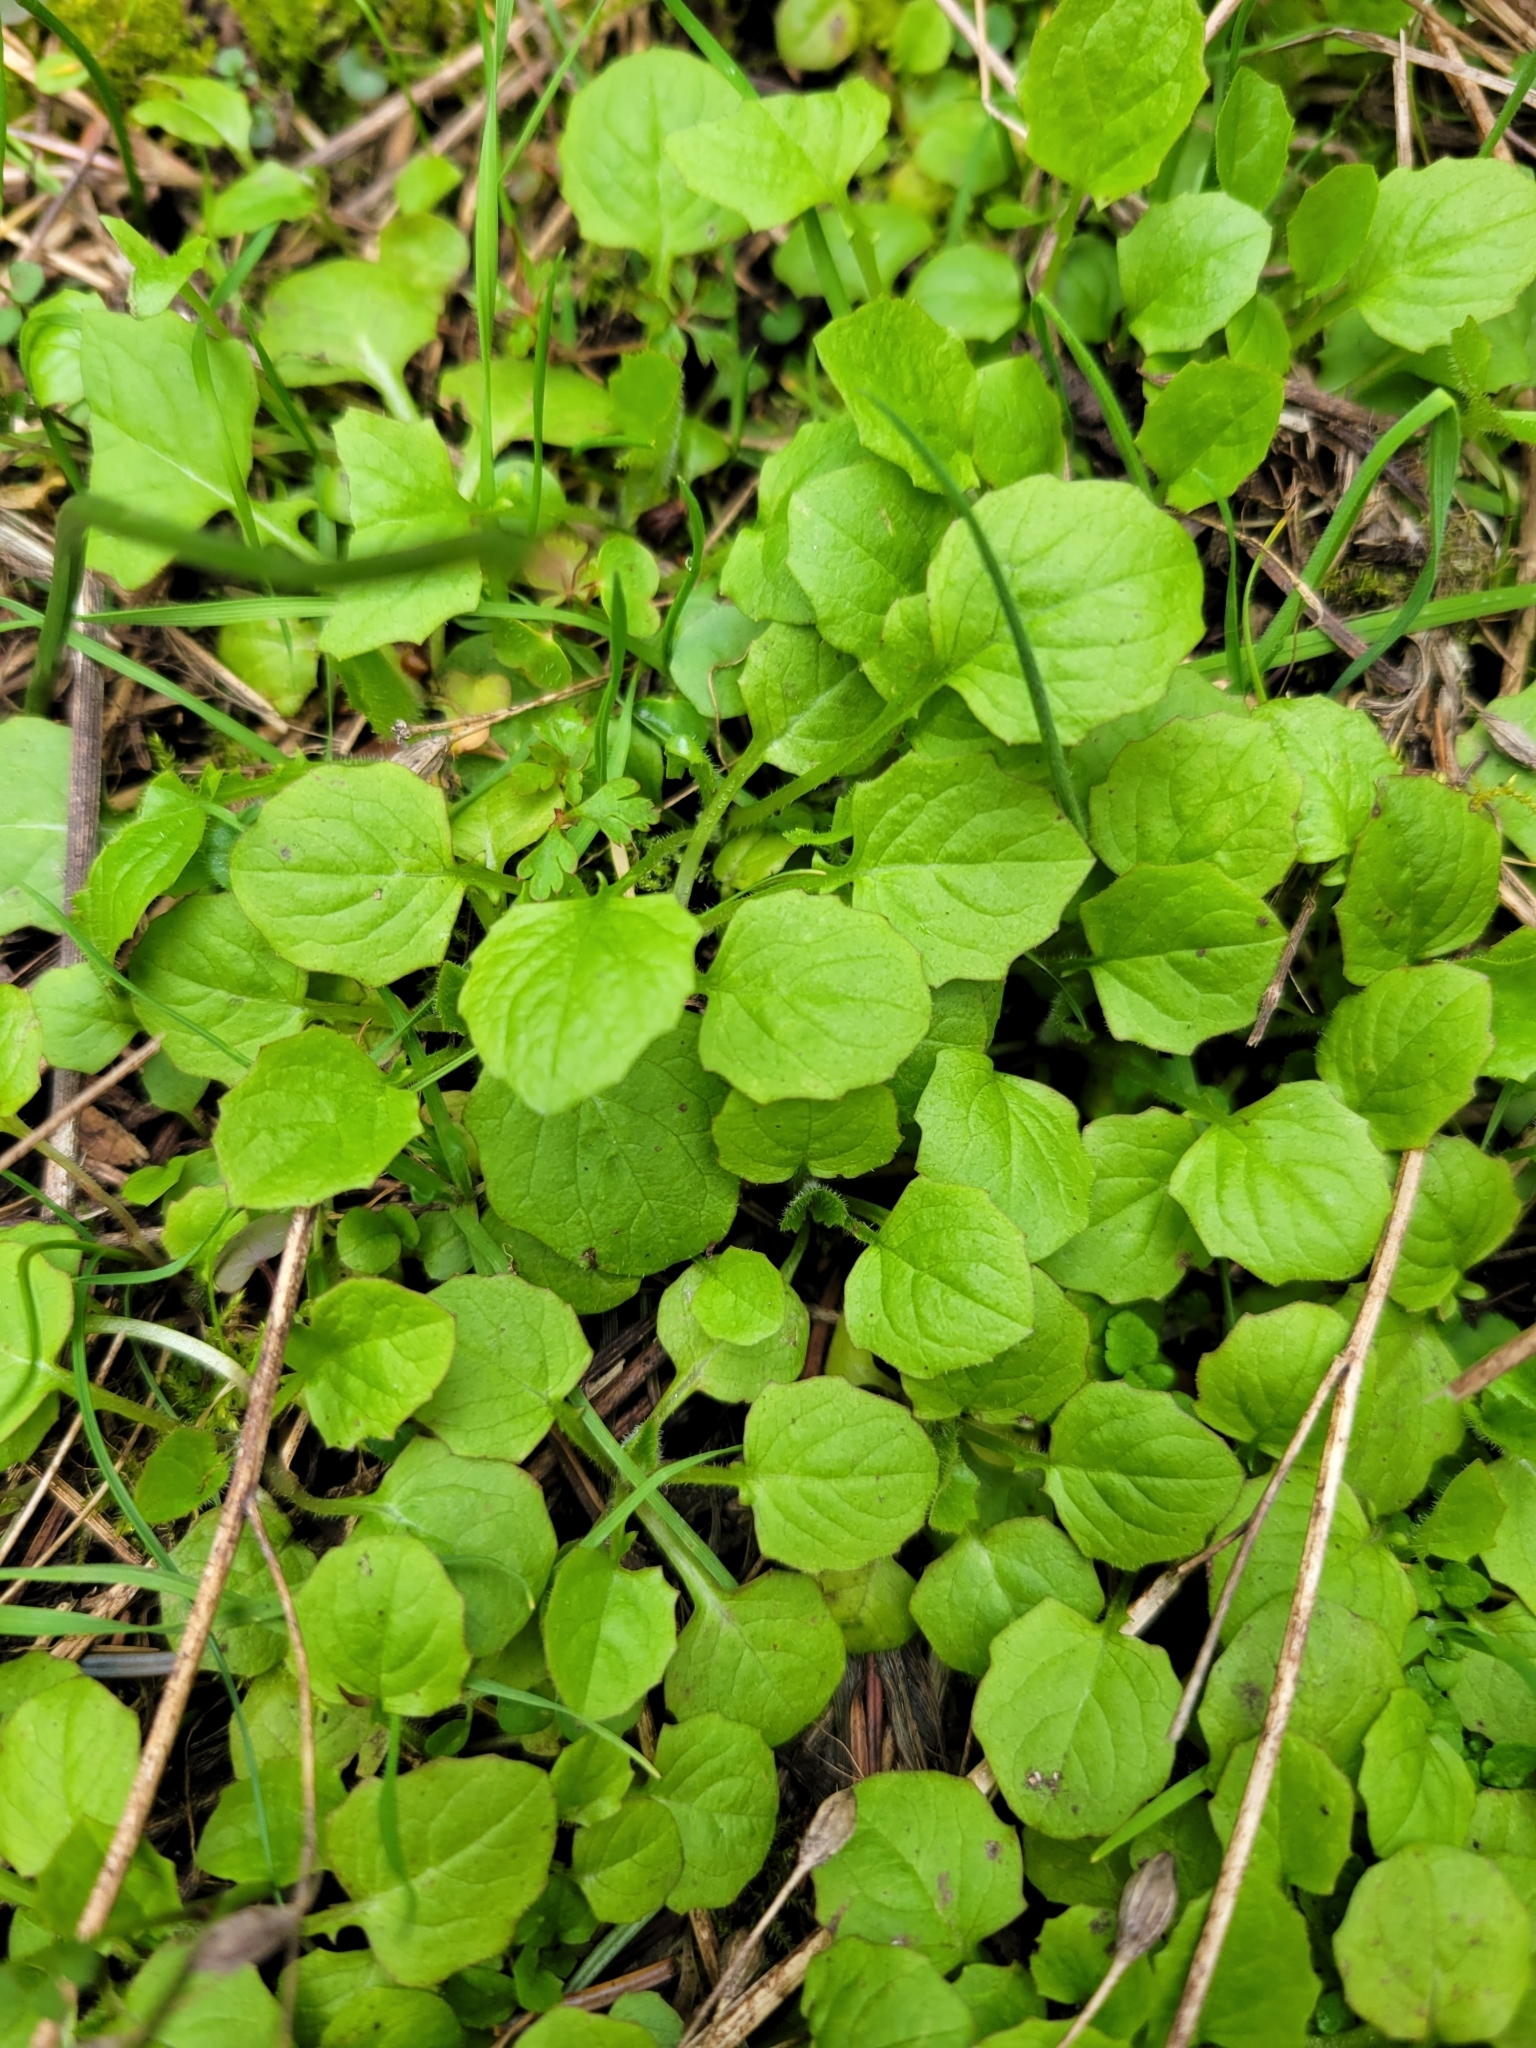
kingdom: Plantae
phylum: Tracheophyta
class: Magnoliopsida
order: Asterales
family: Asteraceae
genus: Lapsana
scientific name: Lapsana communis
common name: Nipplewort
